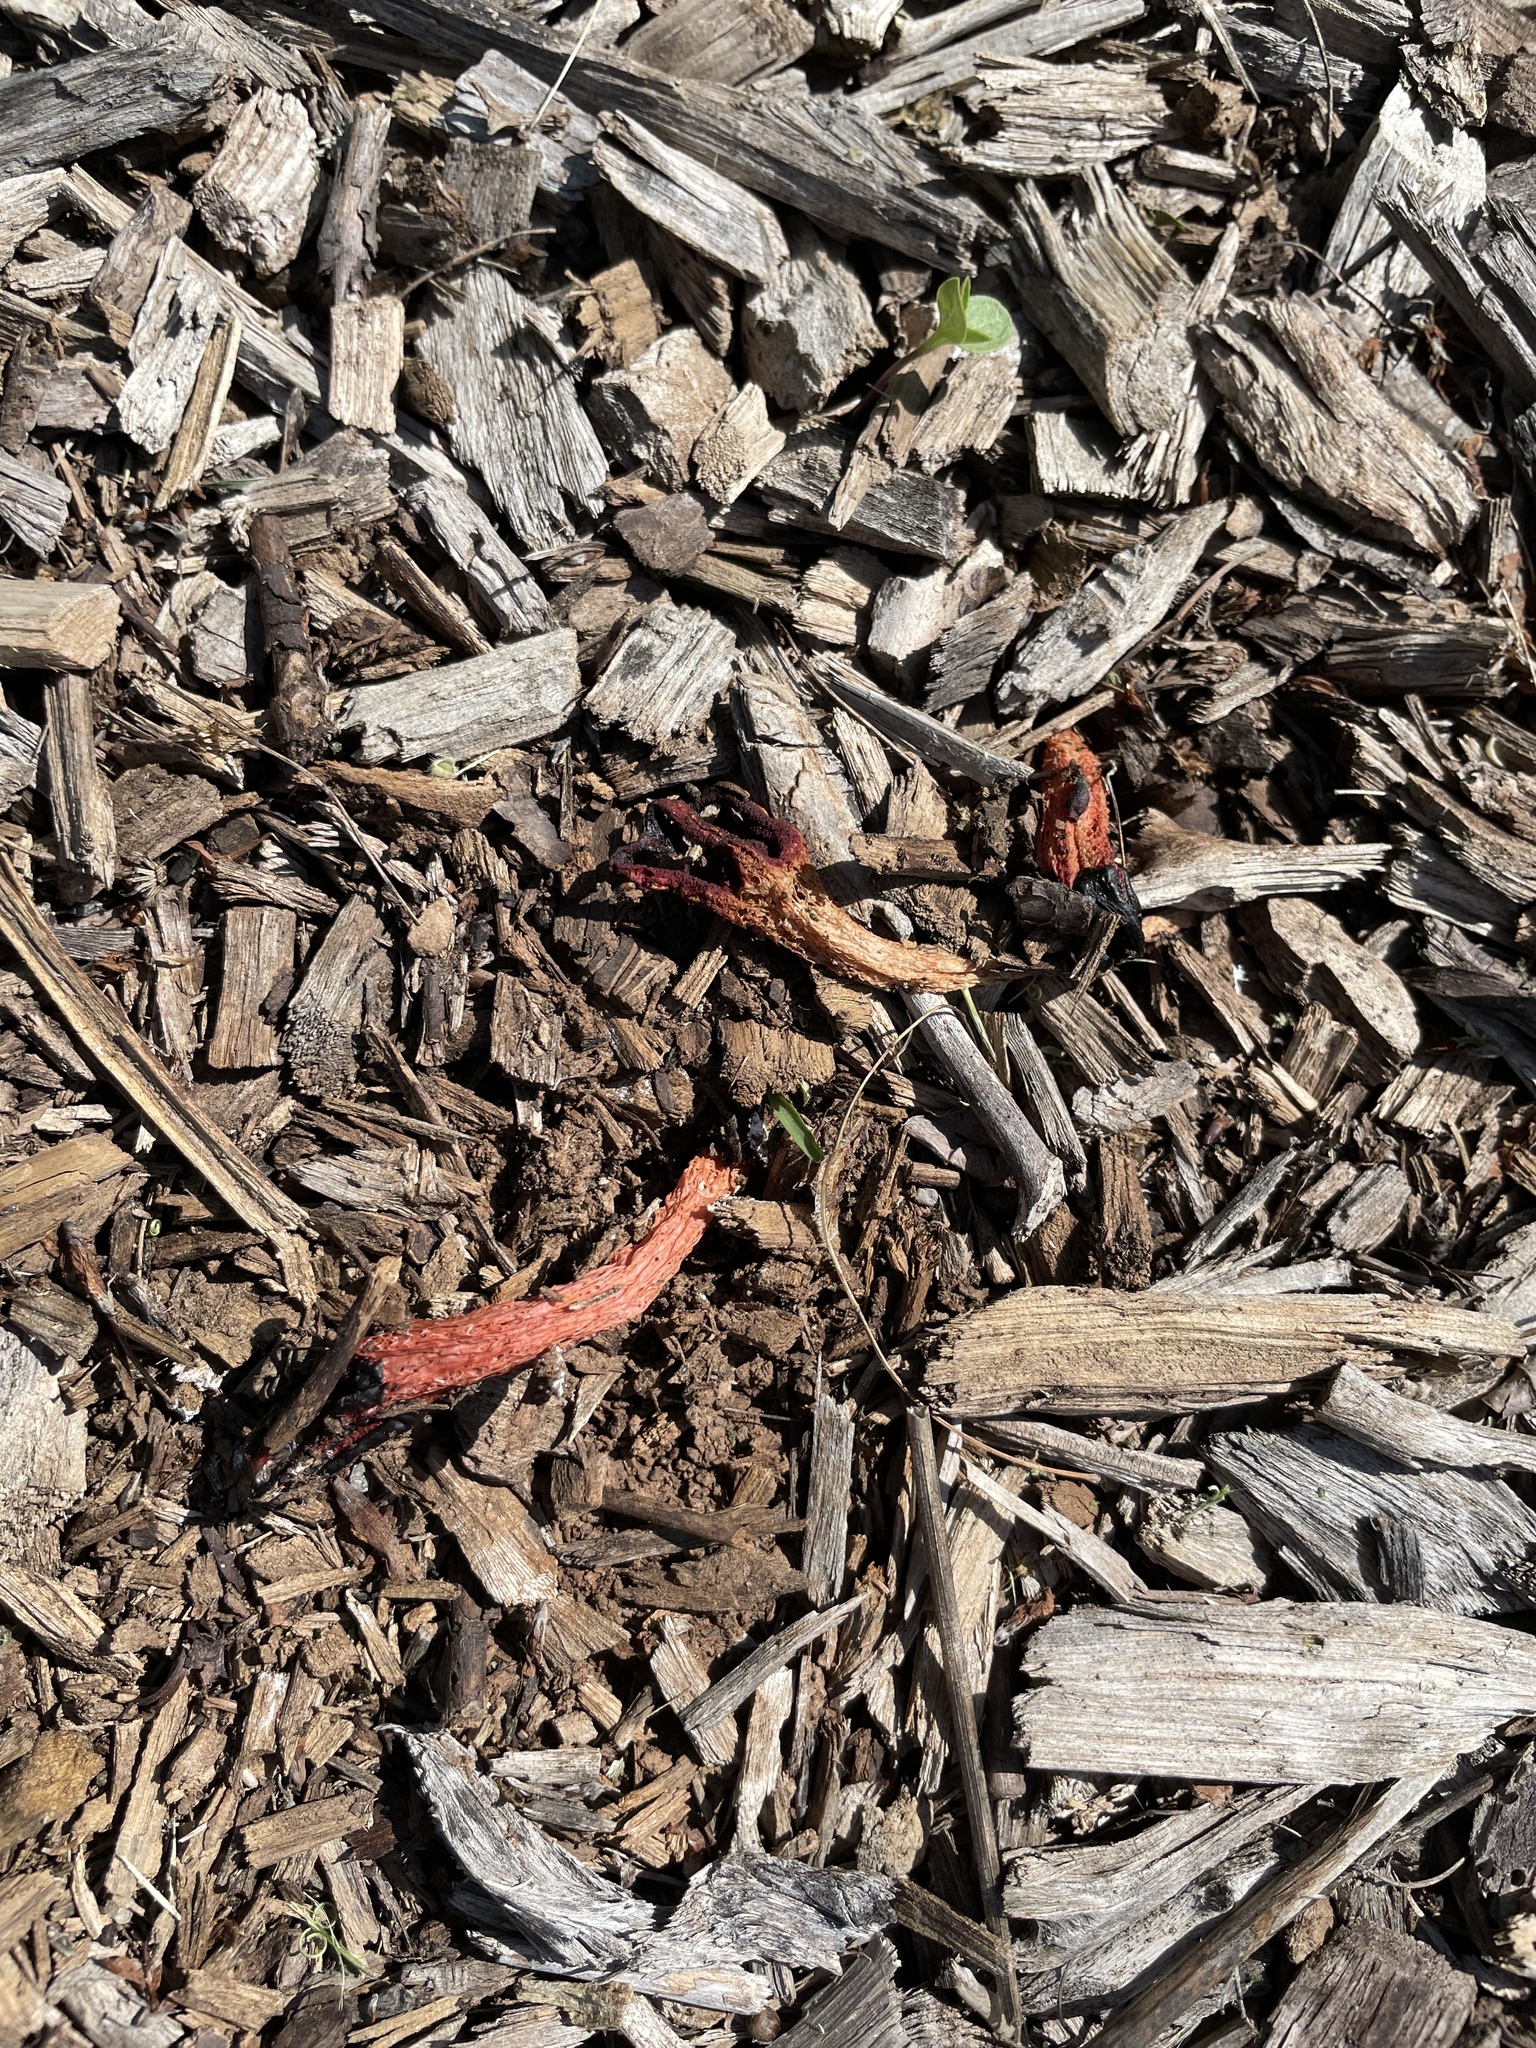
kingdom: Fungi
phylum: Basidiomycota
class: Agaricomycetes
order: Phallales
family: Phallaceae
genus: Lysurus
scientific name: Lysurus mokusin
